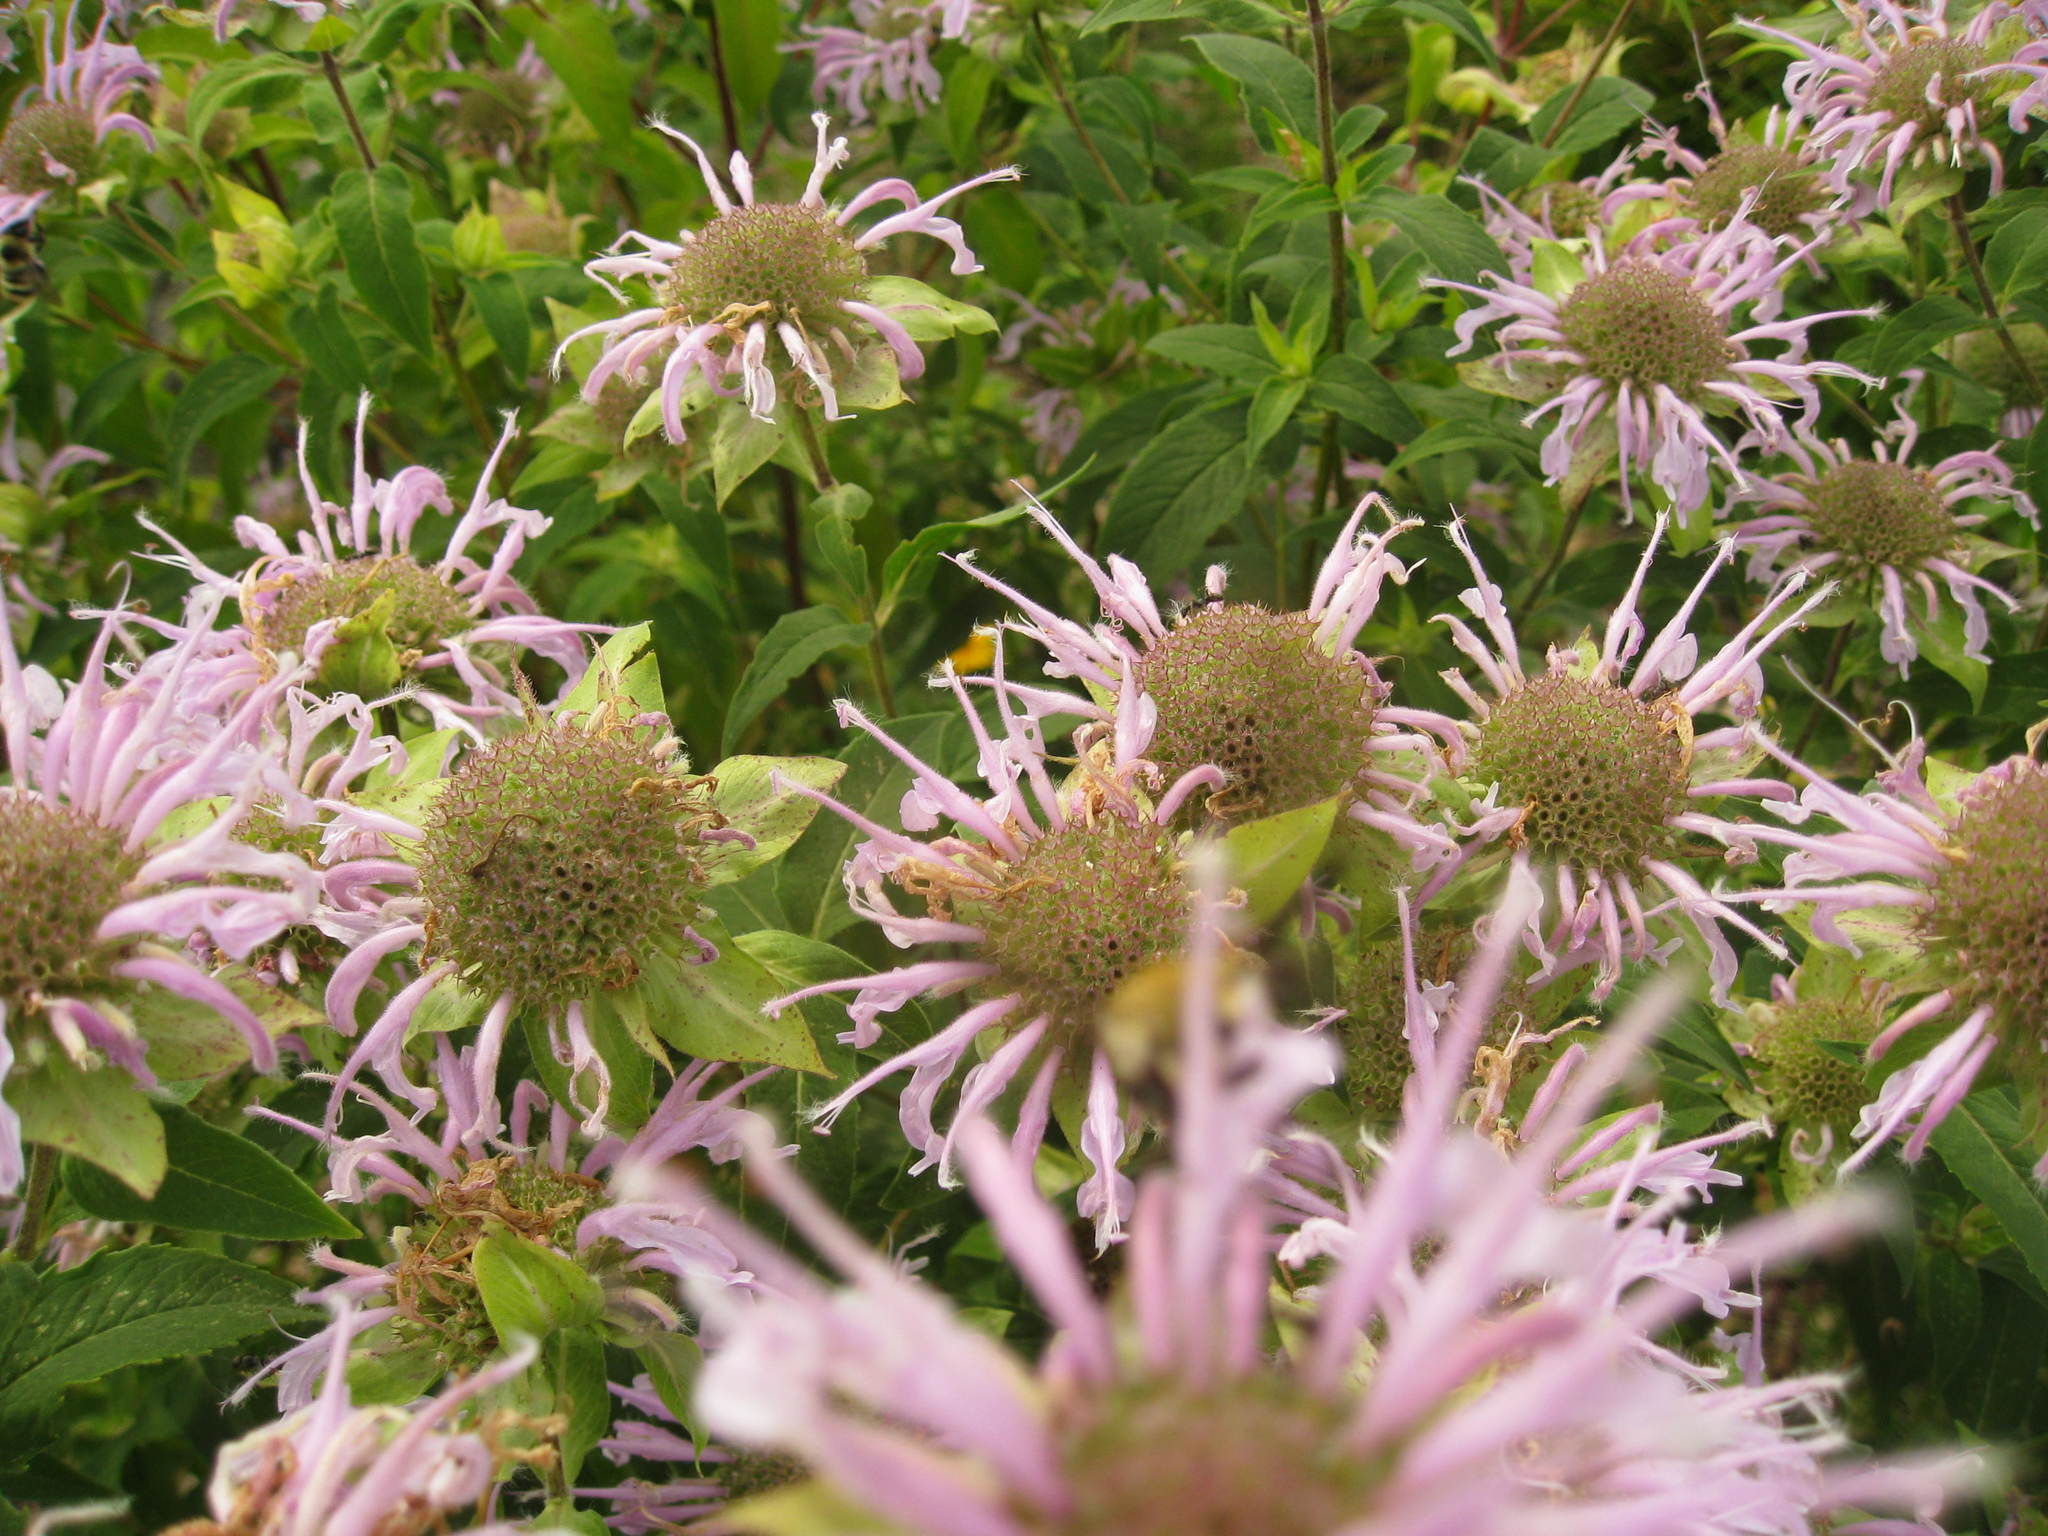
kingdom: Plantae
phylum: Tracheophyta
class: Magnoliopsida
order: Lamiales
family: Lamiaceae
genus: Monarda
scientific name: Monarda fistulosa
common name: Purple beebalm
